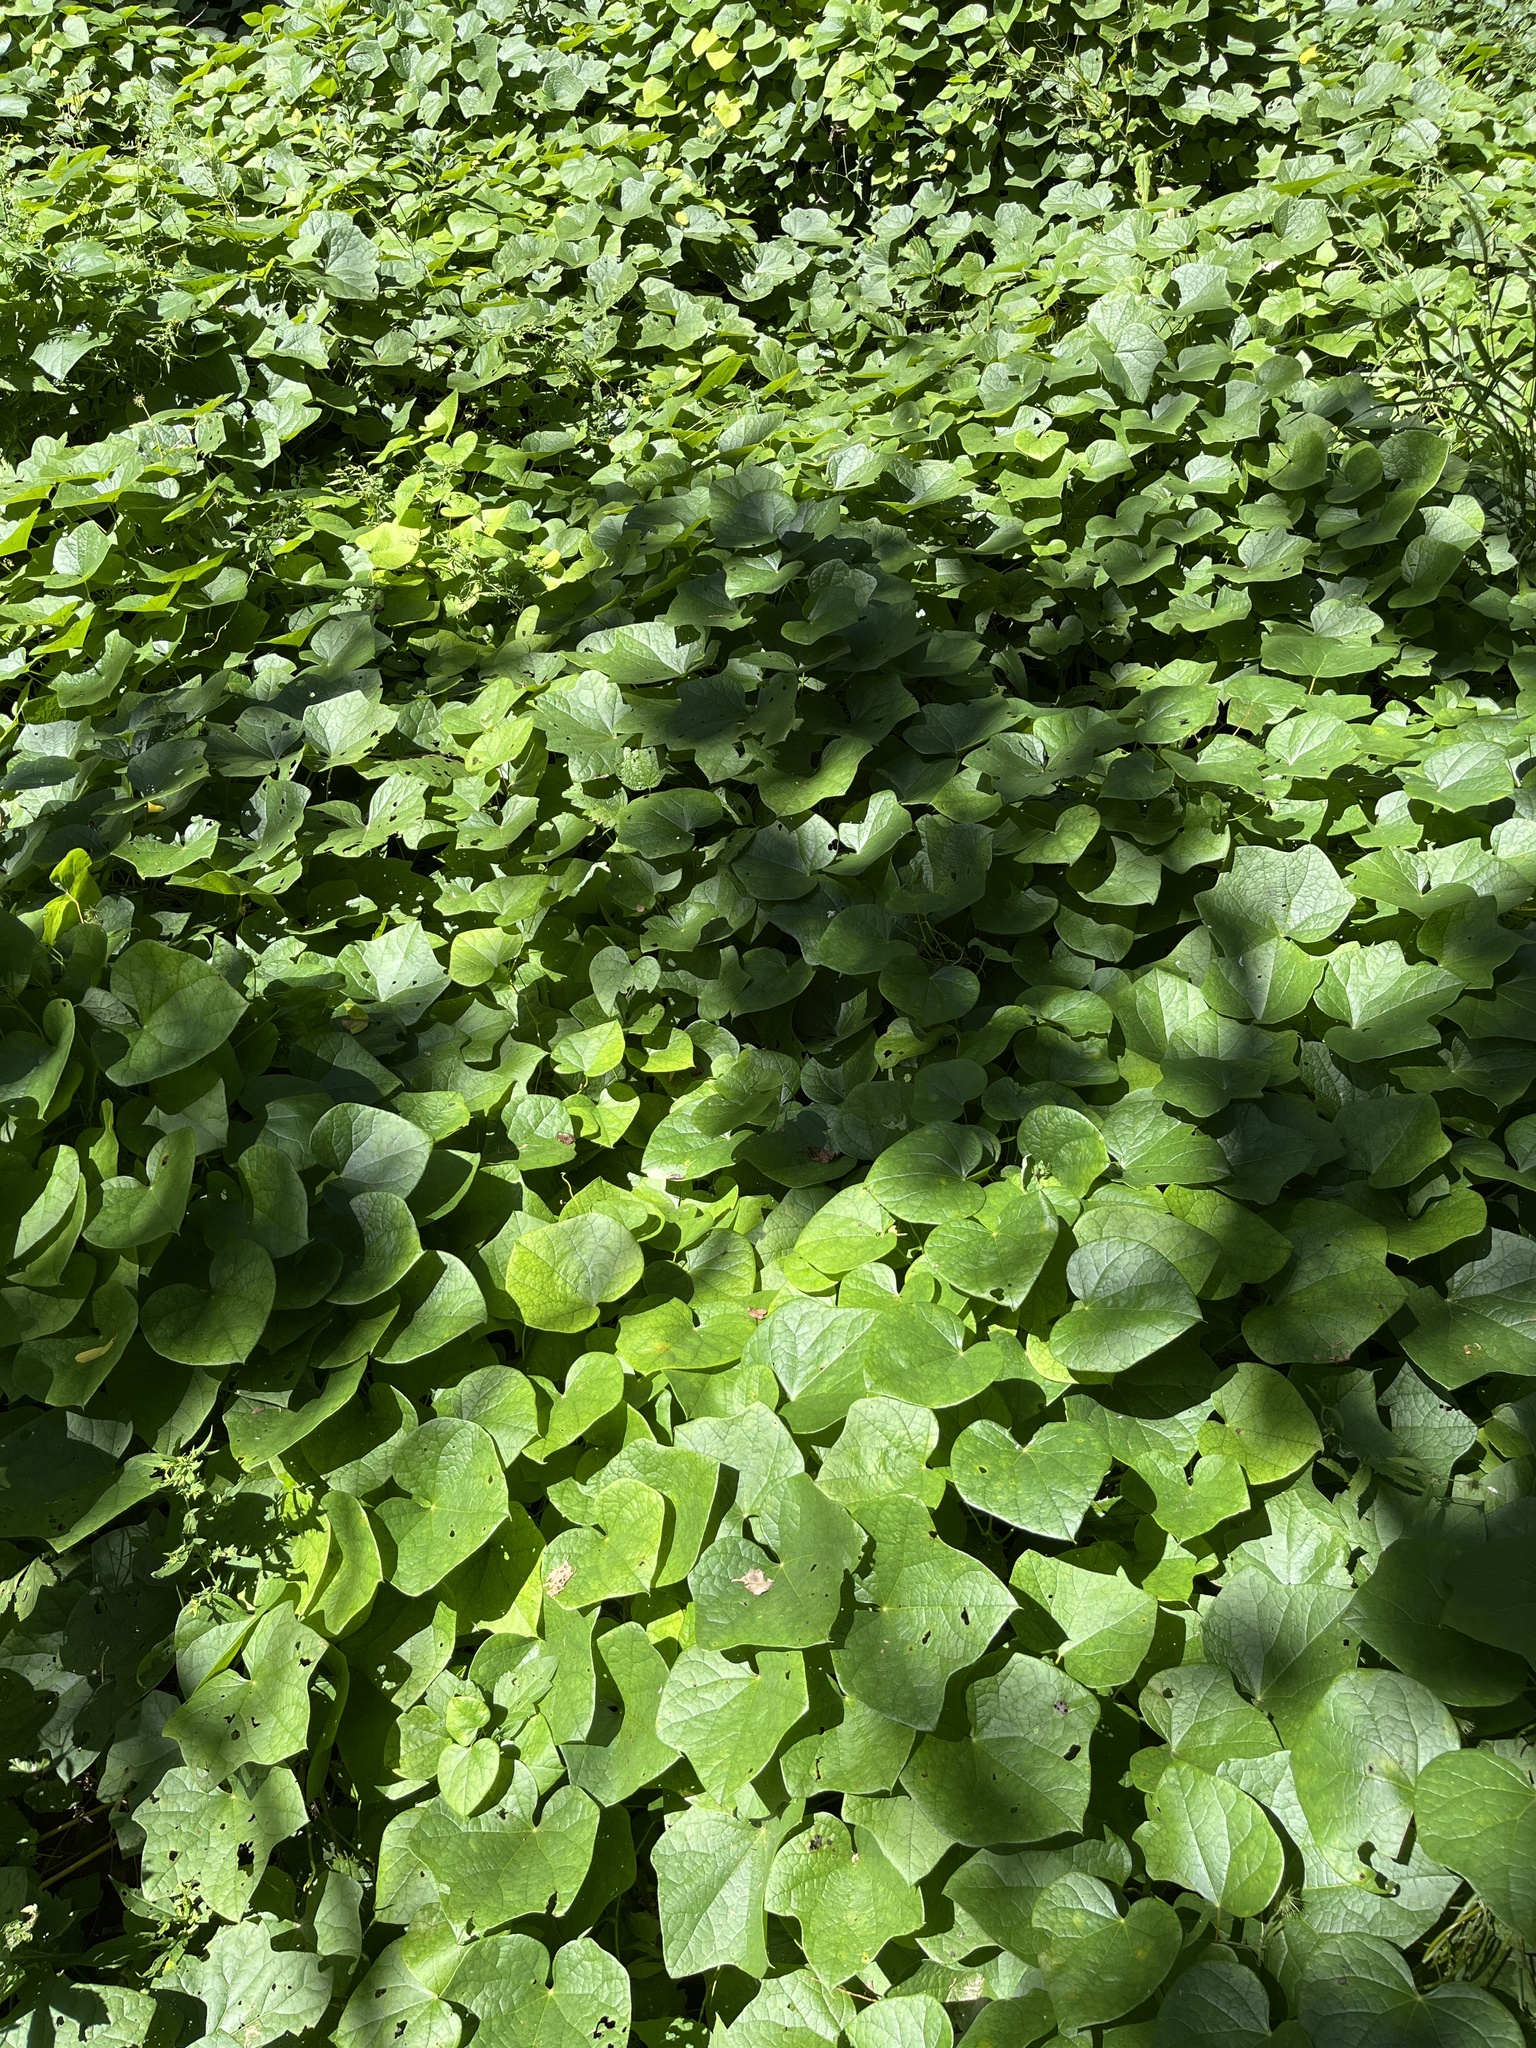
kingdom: Plantae
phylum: Tracheophyta
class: Magnoliopsida
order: Ranunculales
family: Menispermaceae
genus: Menispermum
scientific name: Menispermum canadense
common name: Moonseed
